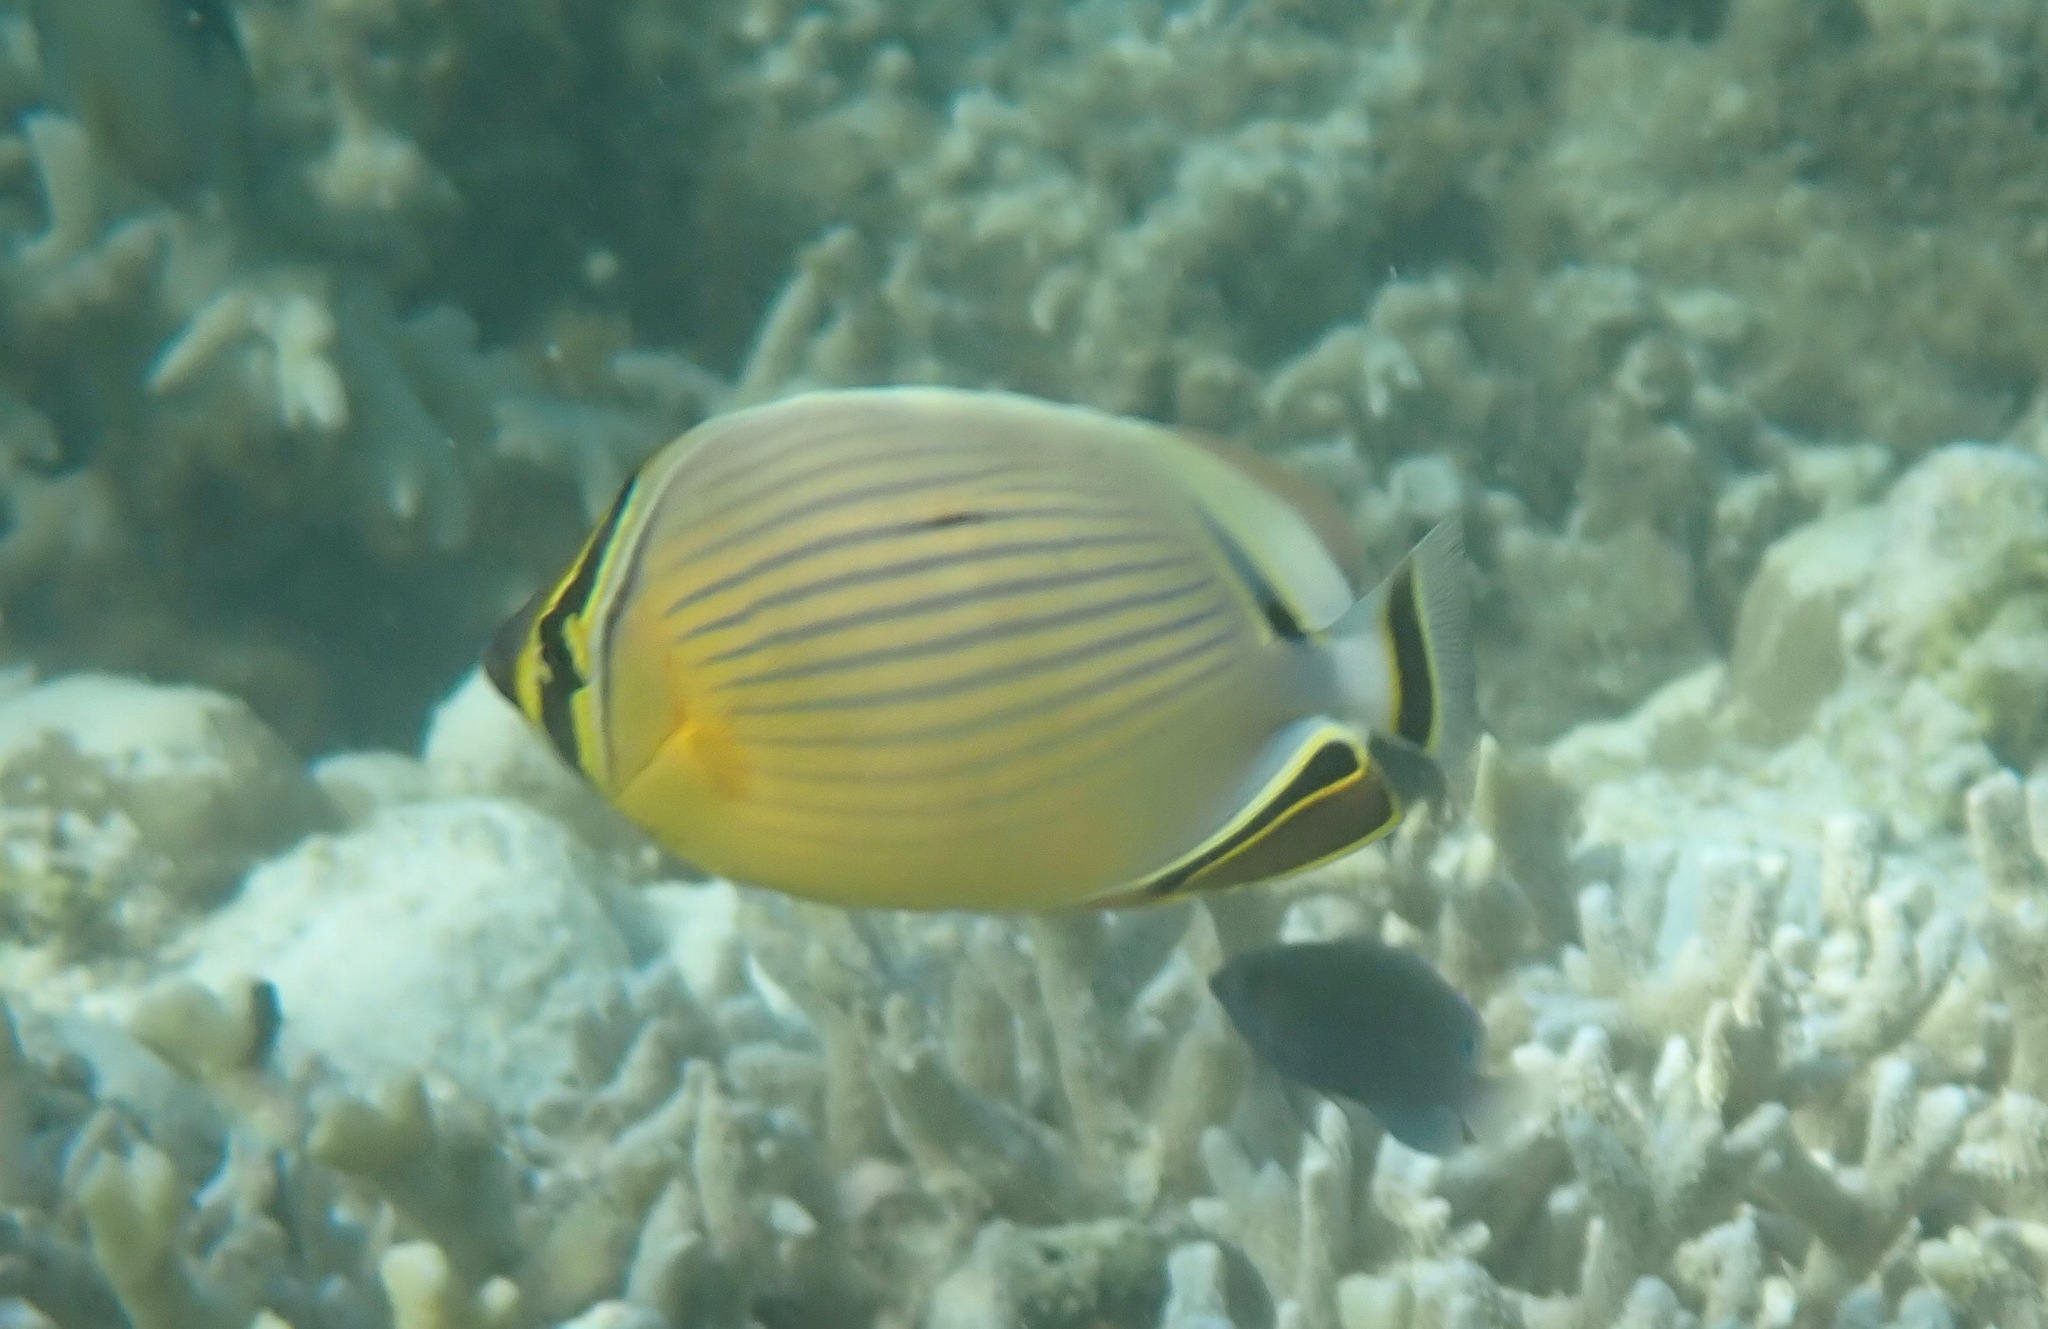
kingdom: Animalia
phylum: Chordata
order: Perciformes
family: Chaetodontidae
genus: Chaetodon
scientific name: Chaetodon lunulatus
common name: Redfin butterflyfish
